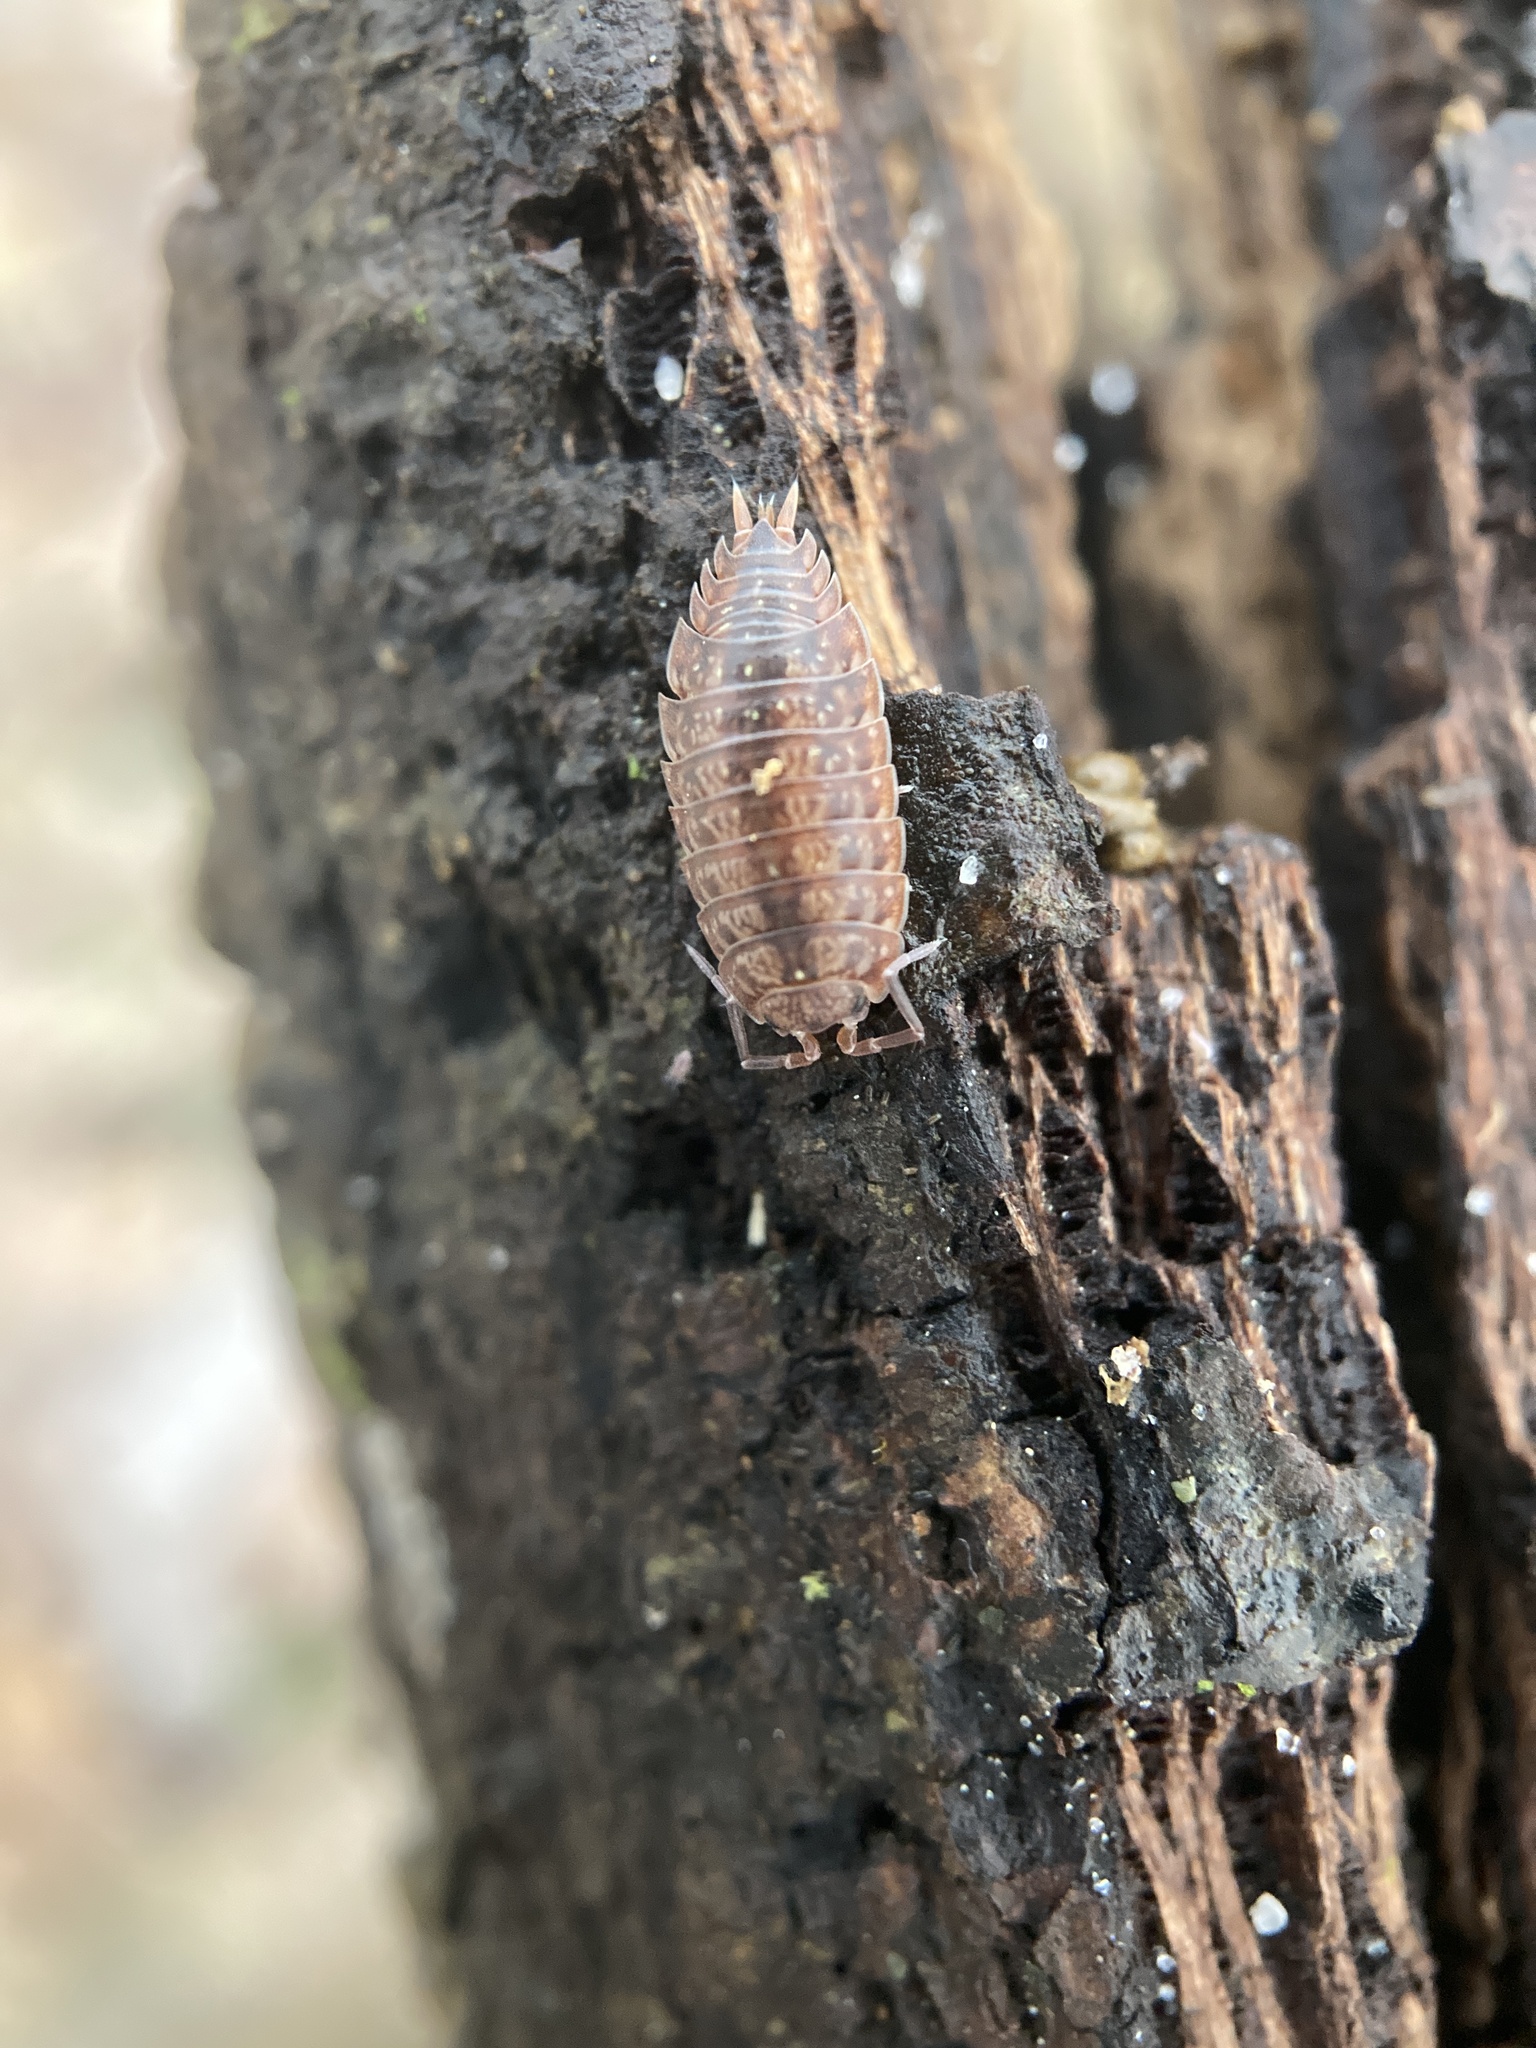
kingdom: Animalia
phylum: Arthropoda
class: Malacostraca
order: Isopoda
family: Porcellionidae
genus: Porcellionides
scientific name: Porcellionides virgatus
